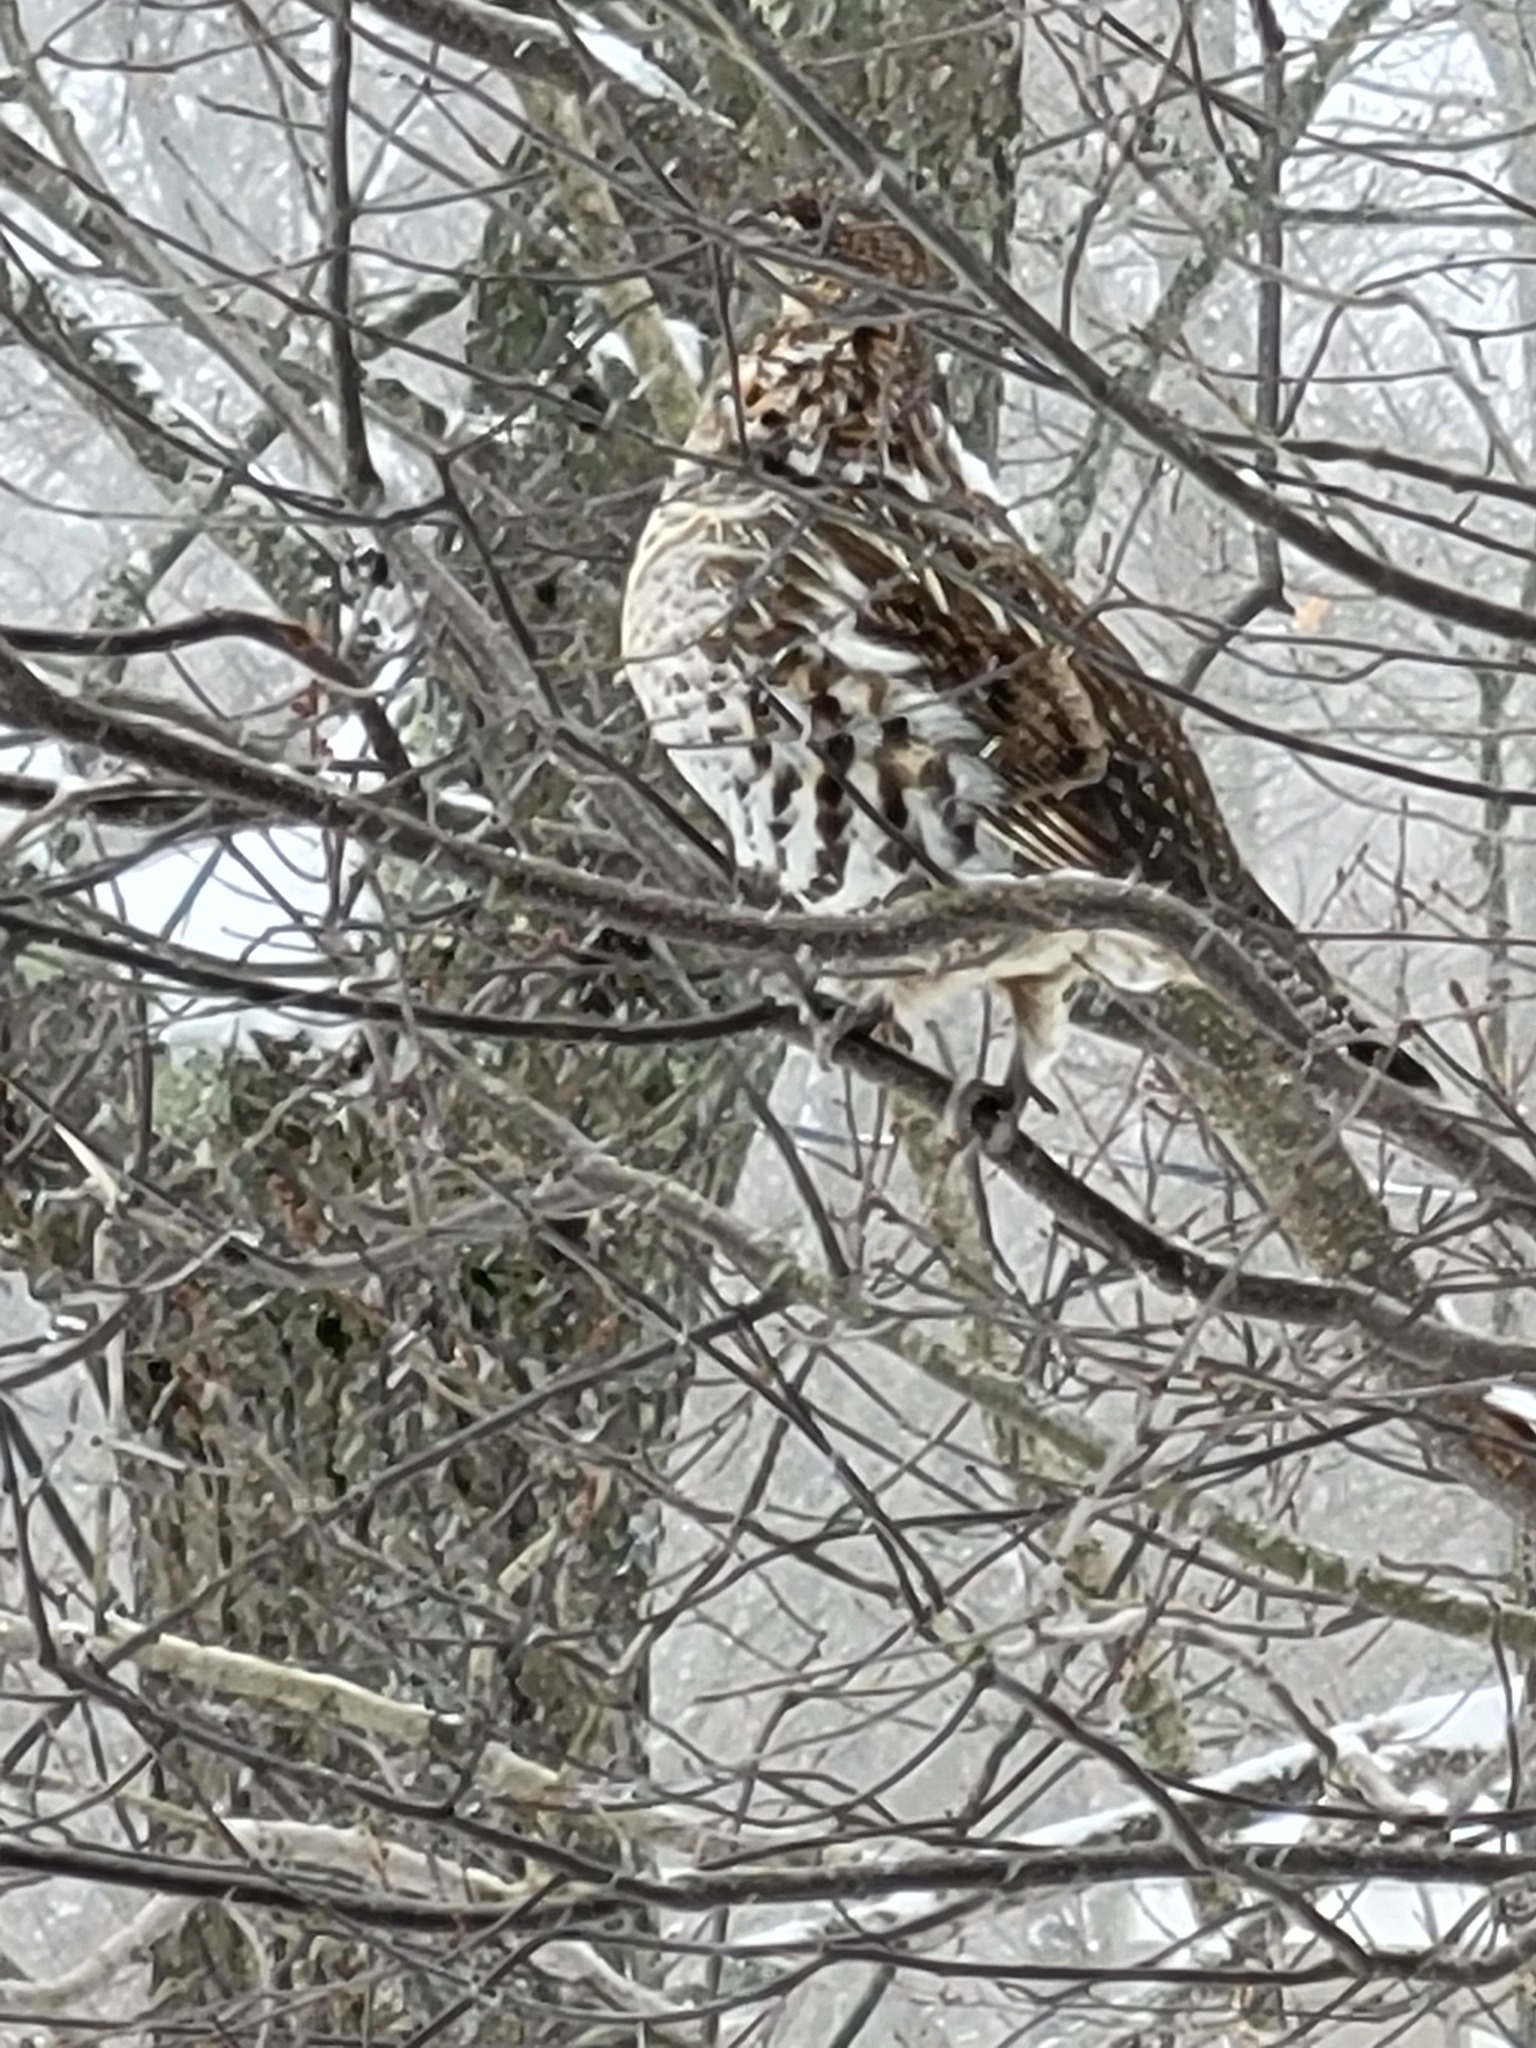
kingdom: Animalia
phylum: Chordata
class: Aves
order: Galliformes
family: Phasianidae
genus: Bonasa
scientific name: Bonasa umbellus
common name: Ruffed grouse
